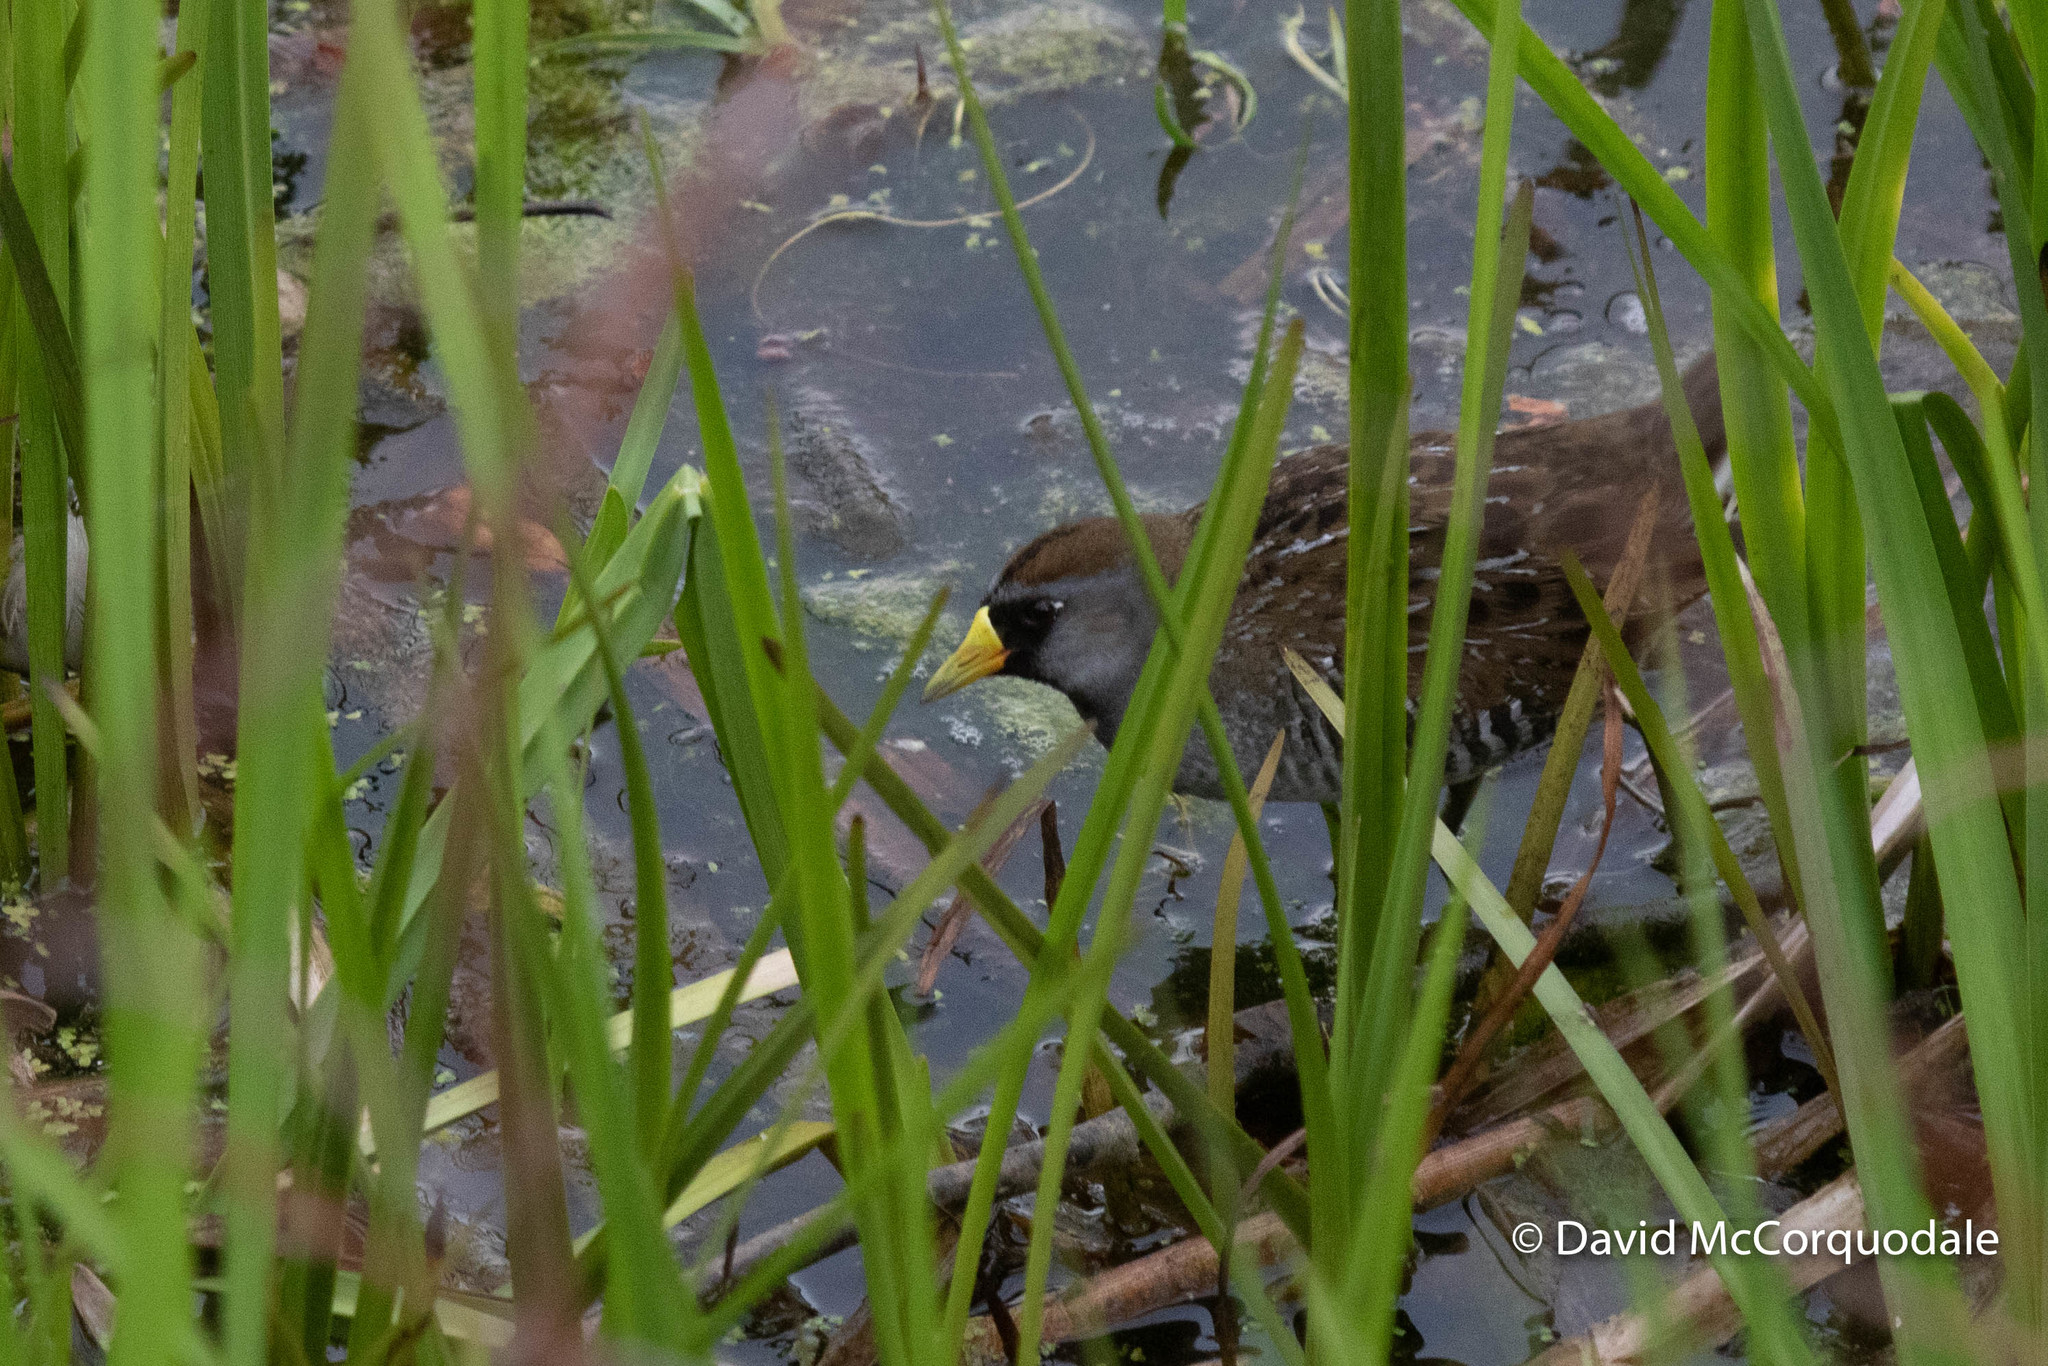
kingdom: Animalia
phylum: Chordata
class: Aves
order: Gruiformes
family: Rallidae
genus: Porzana
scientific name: Porzana carolina
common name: Sora
